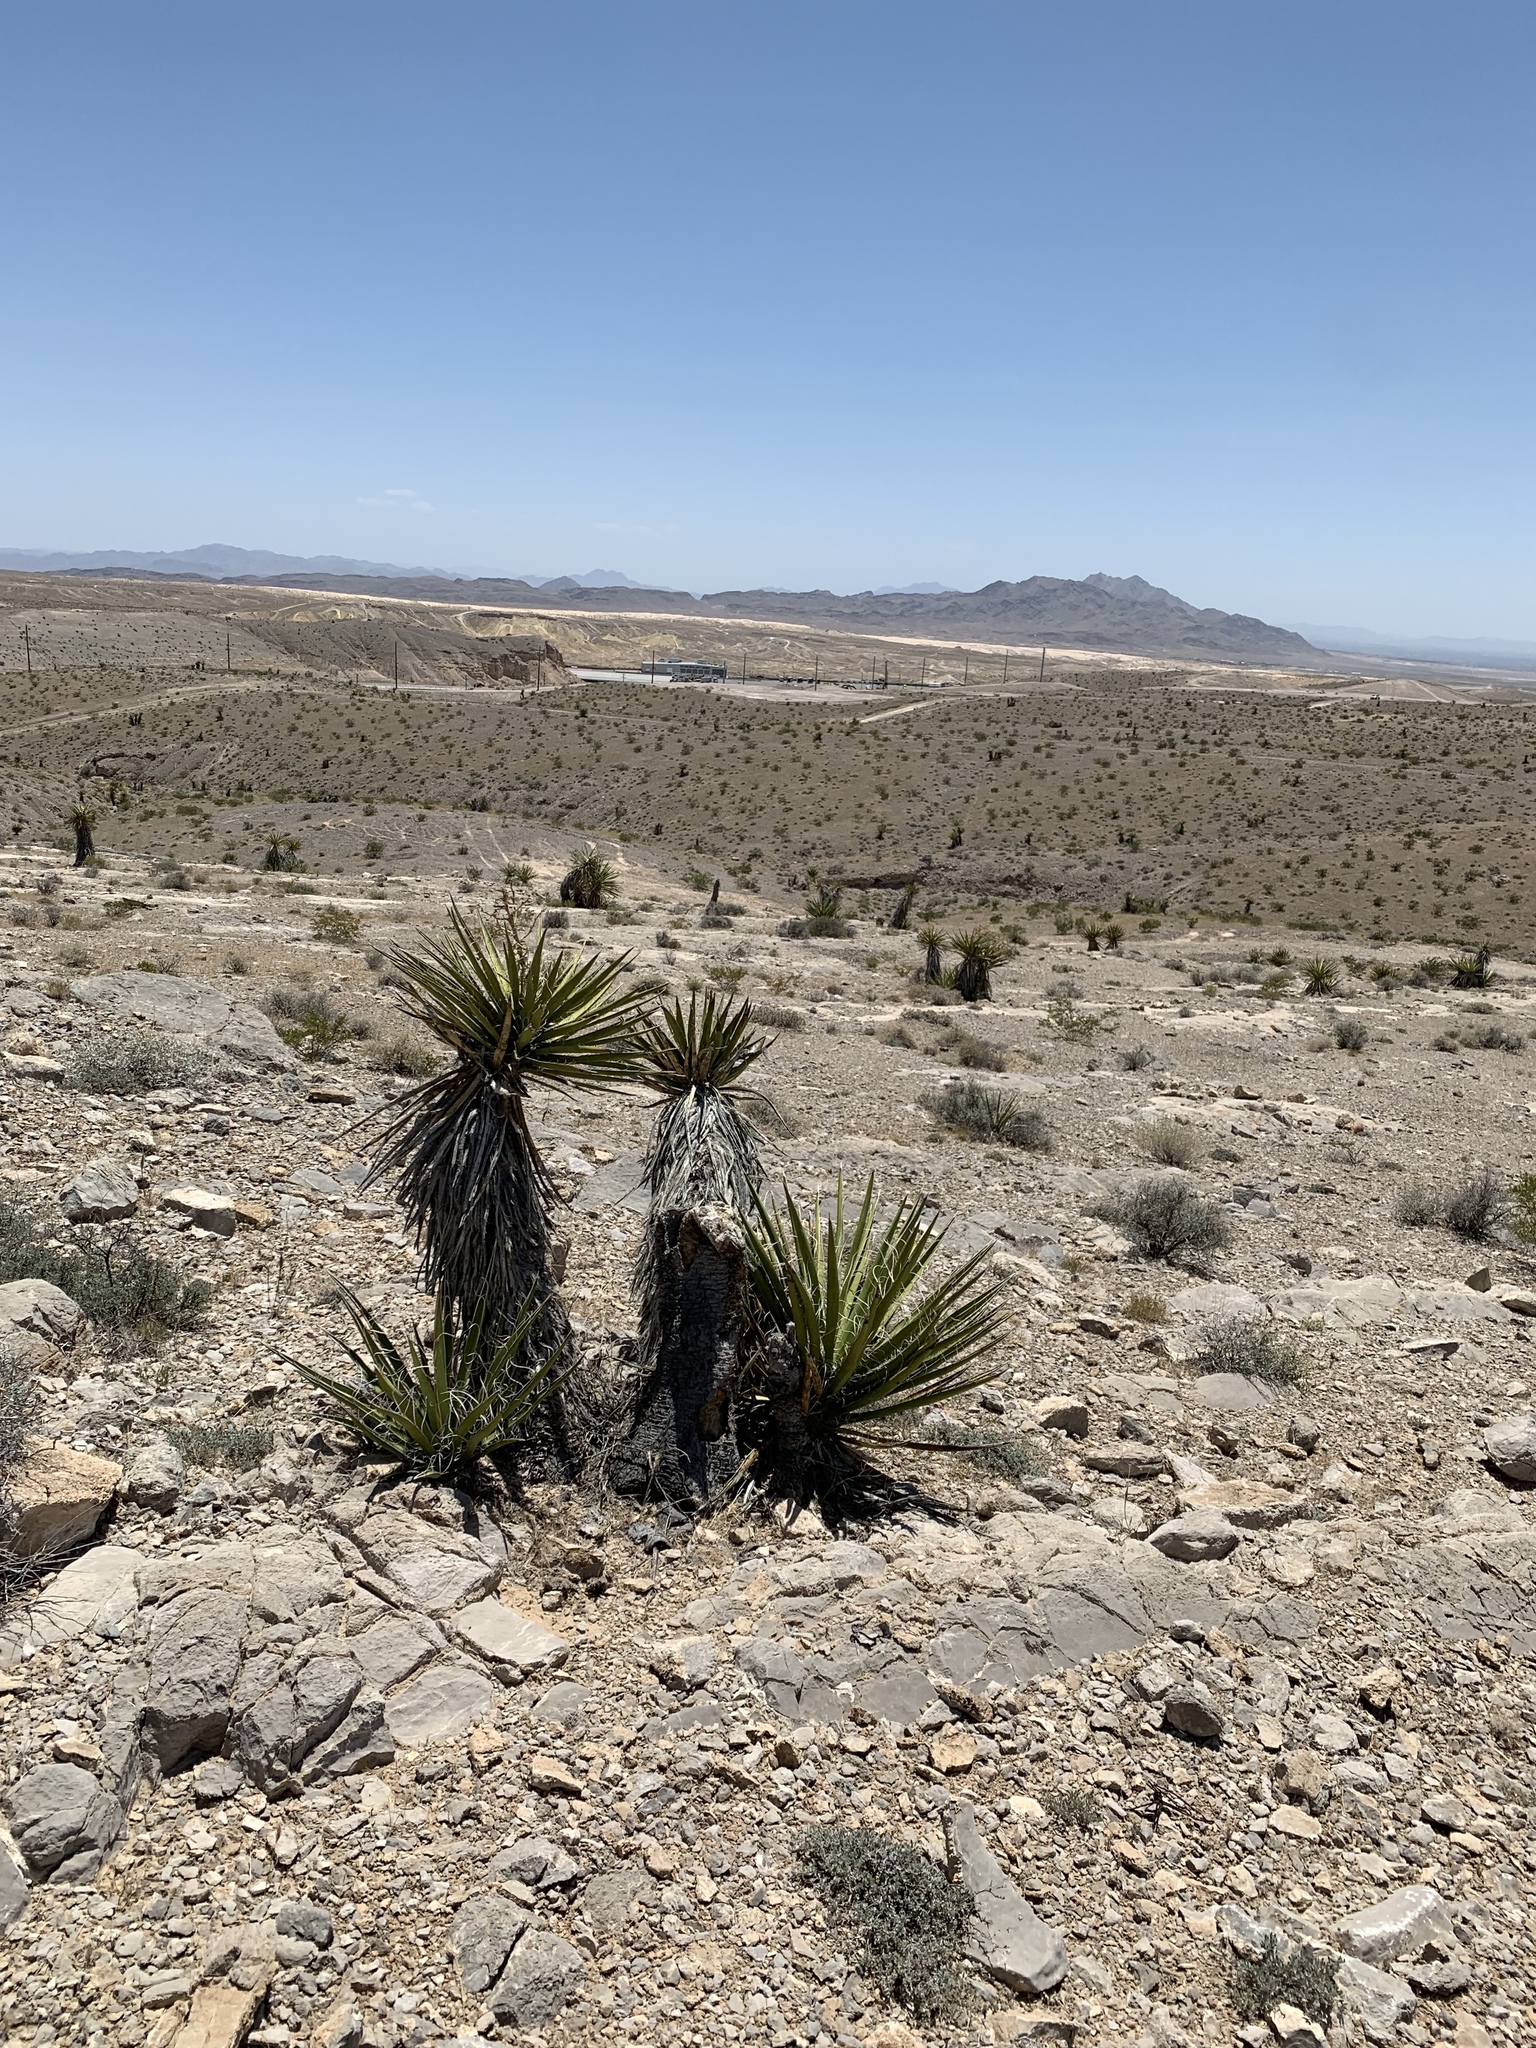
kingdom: Plantae
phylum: Tracheophyta
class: Liliopsida
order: Asparagales
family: Asparagaceae
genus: Yucca
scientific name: Yucca schidigera
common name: Mojave yucca
